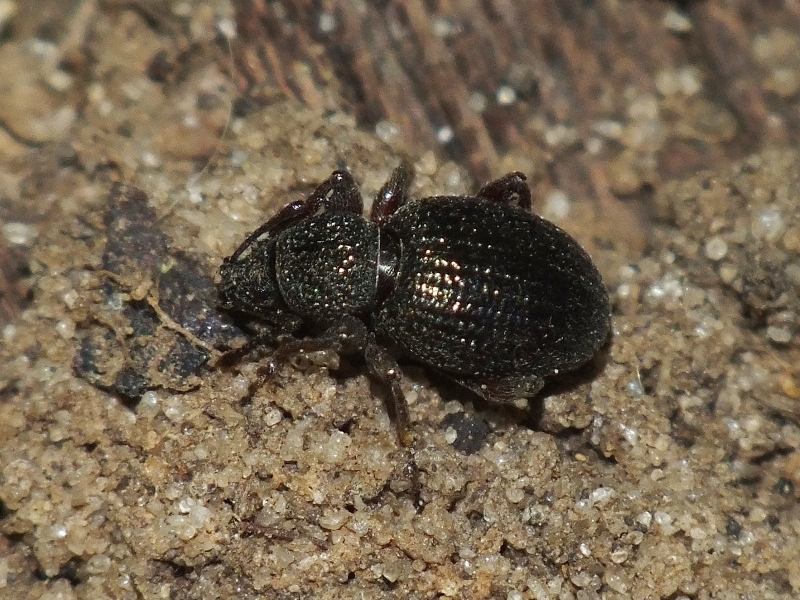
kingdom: Animalia
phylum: Arthropoda
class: Insecta
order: Coleoptera
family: Curculionidae
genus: Otiorhynchus
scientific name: Otiorhynchus ovatus
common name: Strawberry root weevil
